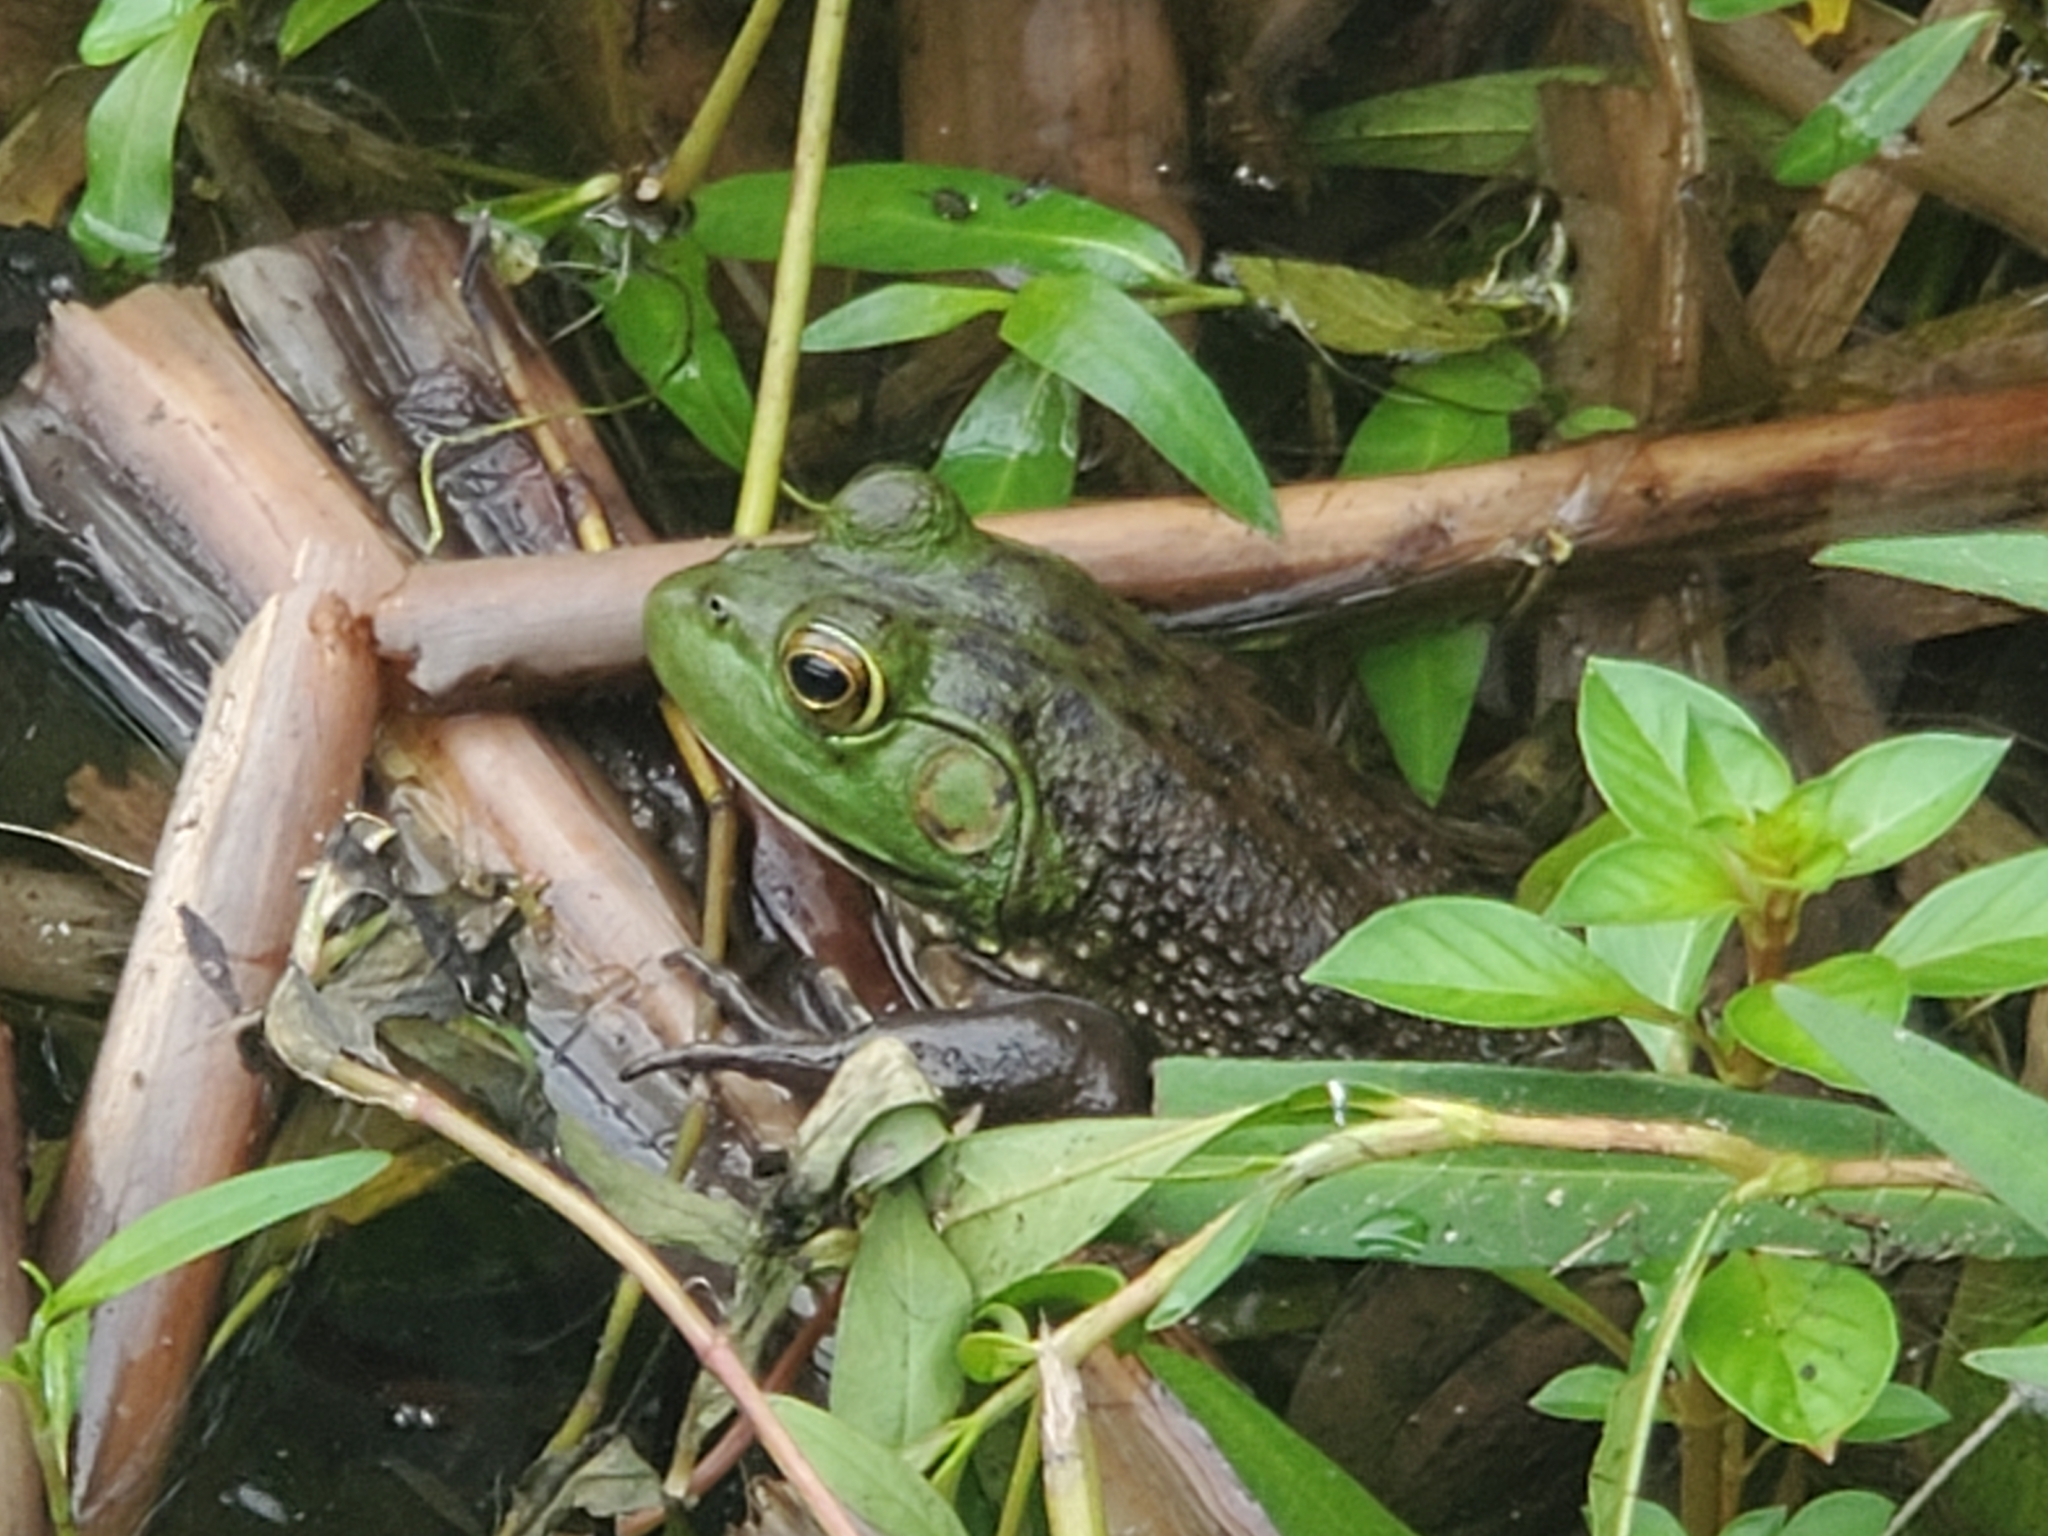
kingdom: Animalia
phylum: Chordata
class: Amphibia
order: Anura
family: Ranidae
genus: Lithobates
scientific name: Lithobates catesbeianus
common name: American bullfrog
